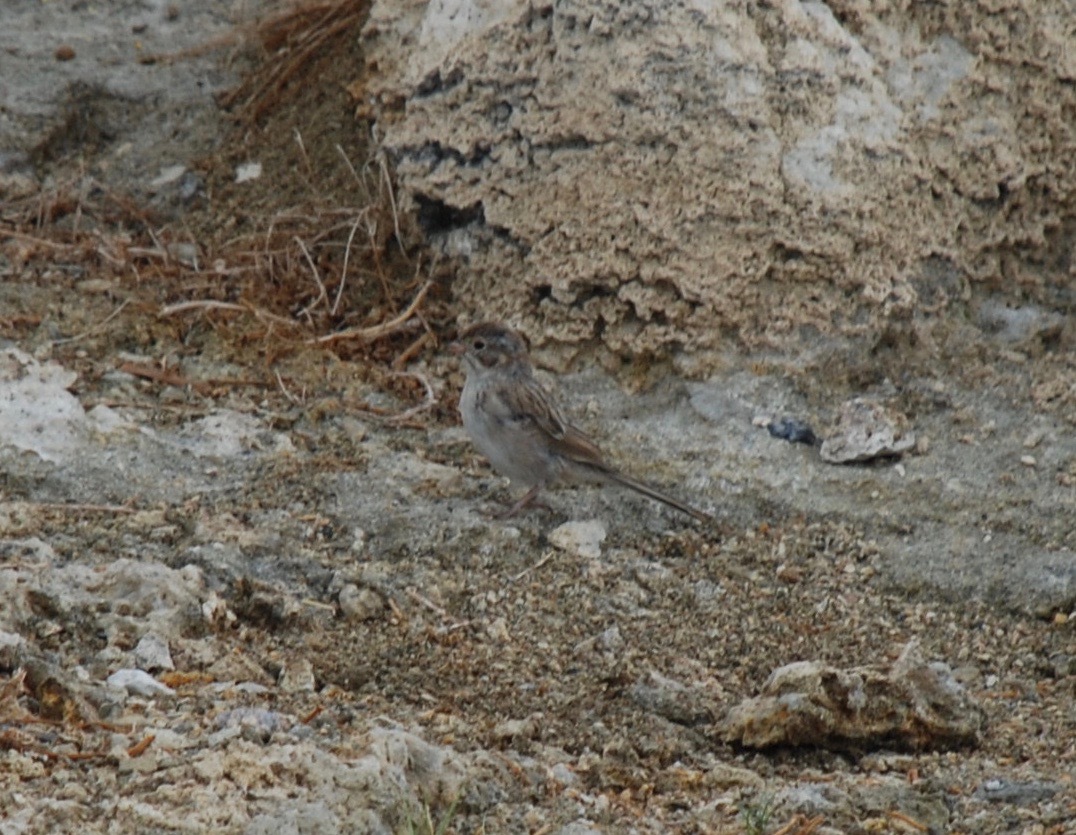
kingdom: Animalia
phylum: Chordata
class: Aves
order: Passeriformes
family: Passerellidae
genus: Spizella
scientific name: Spizella breweri
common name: Brewer's sparrow
